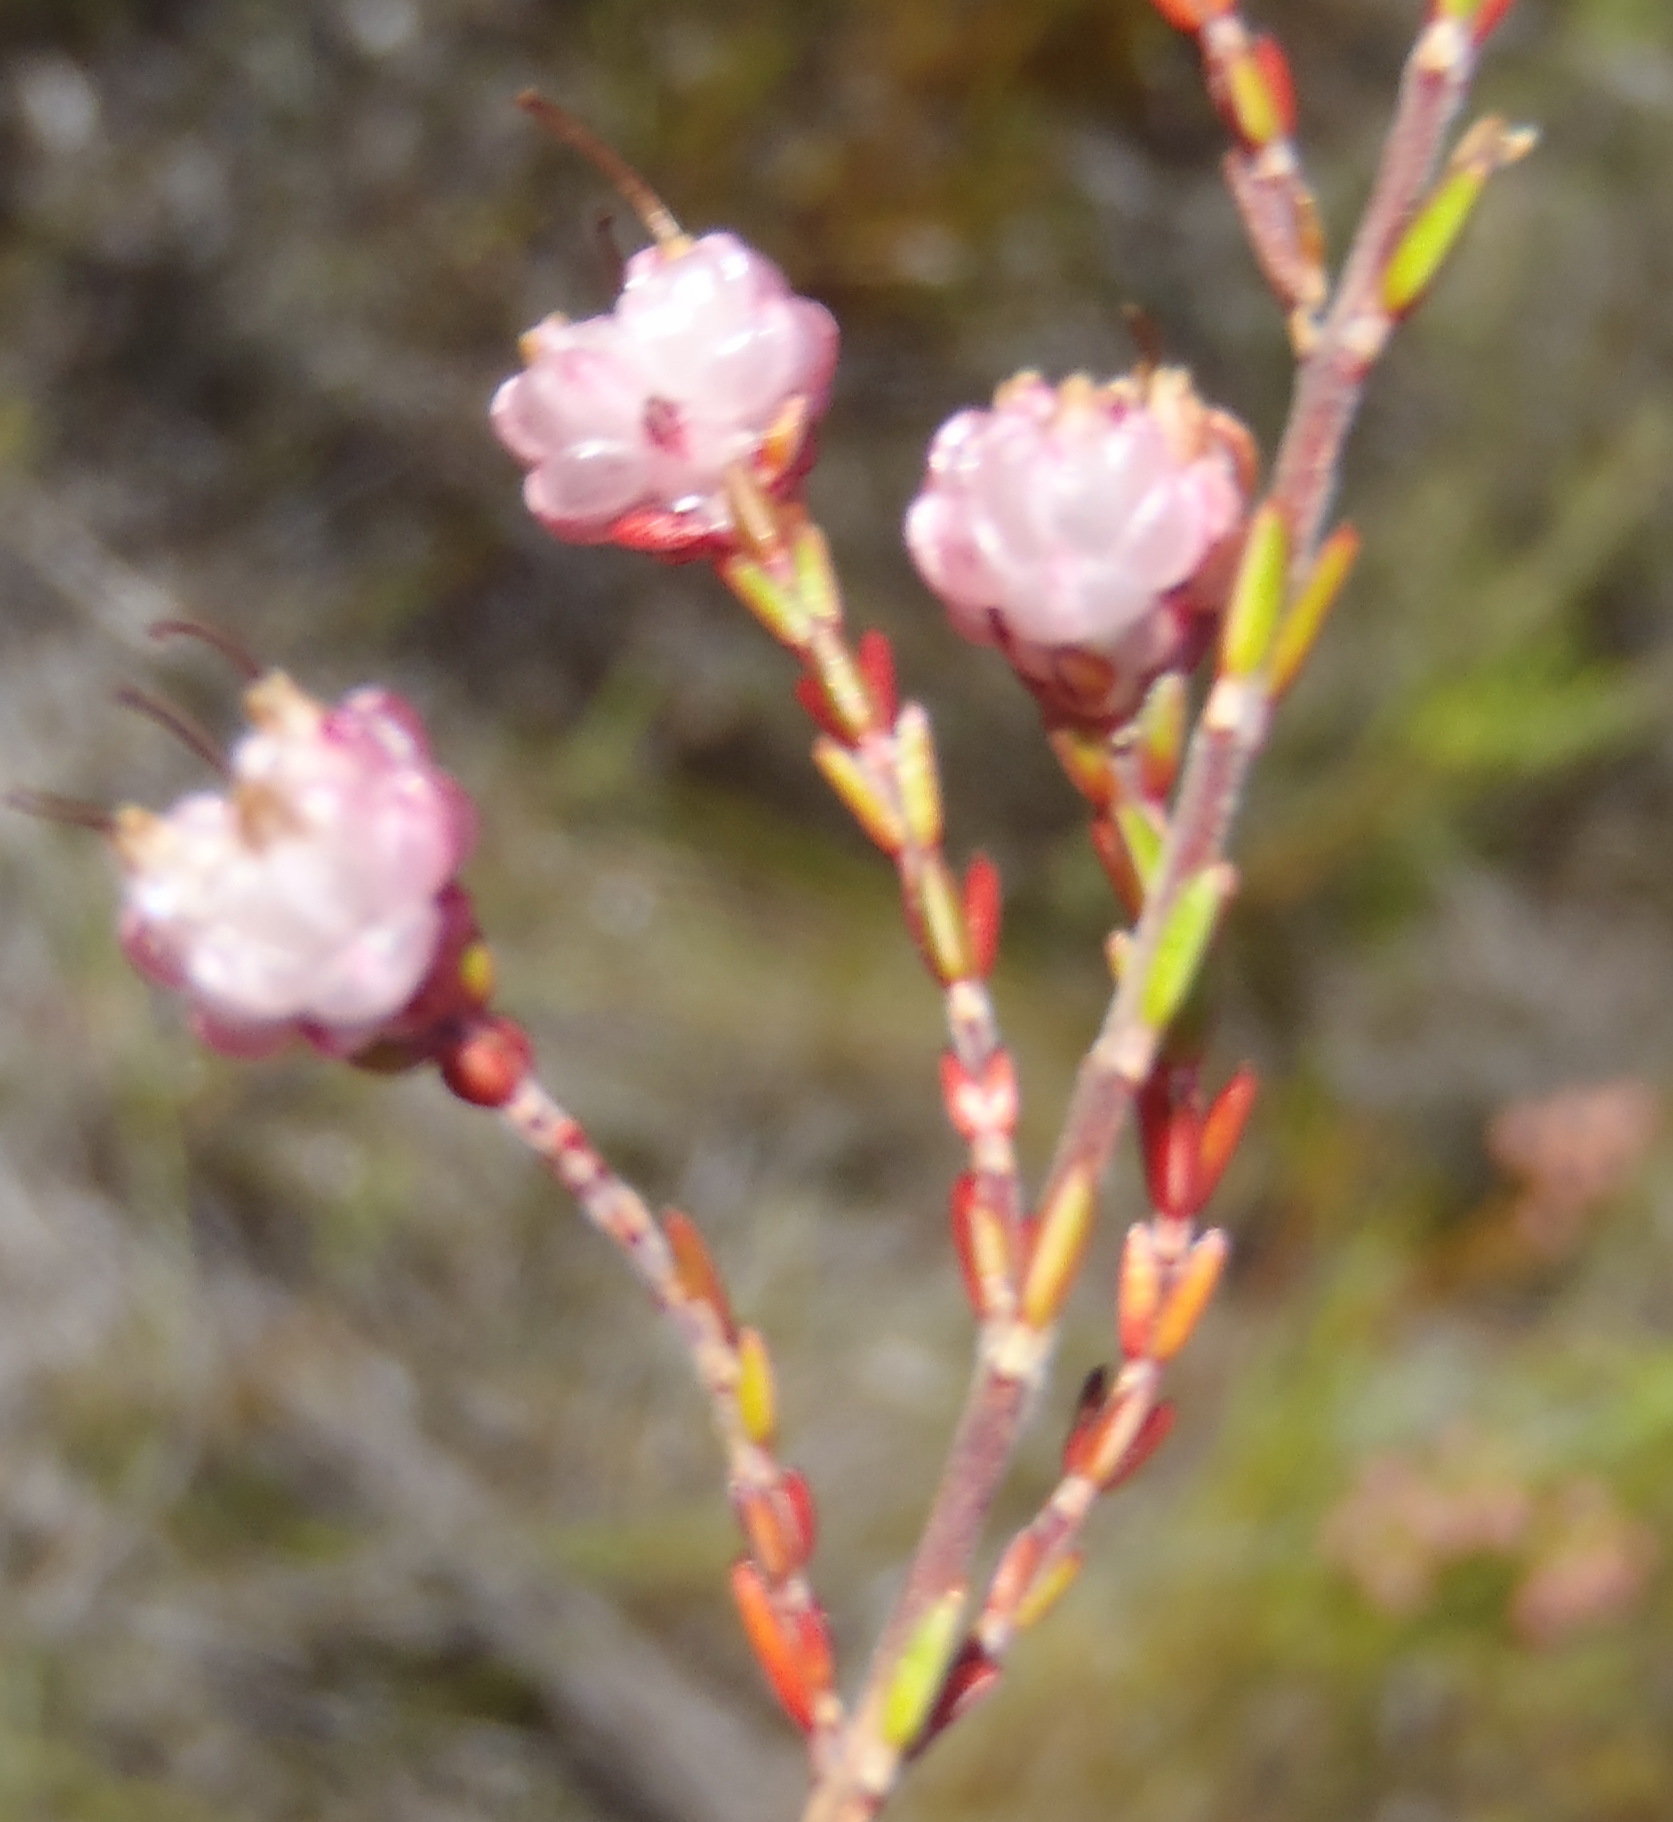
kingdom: Plantae
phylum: Tracheophyta
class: Magnoliopsida
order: Ericales
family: Ericaceae
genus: Erica
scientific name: Erica spumosa
